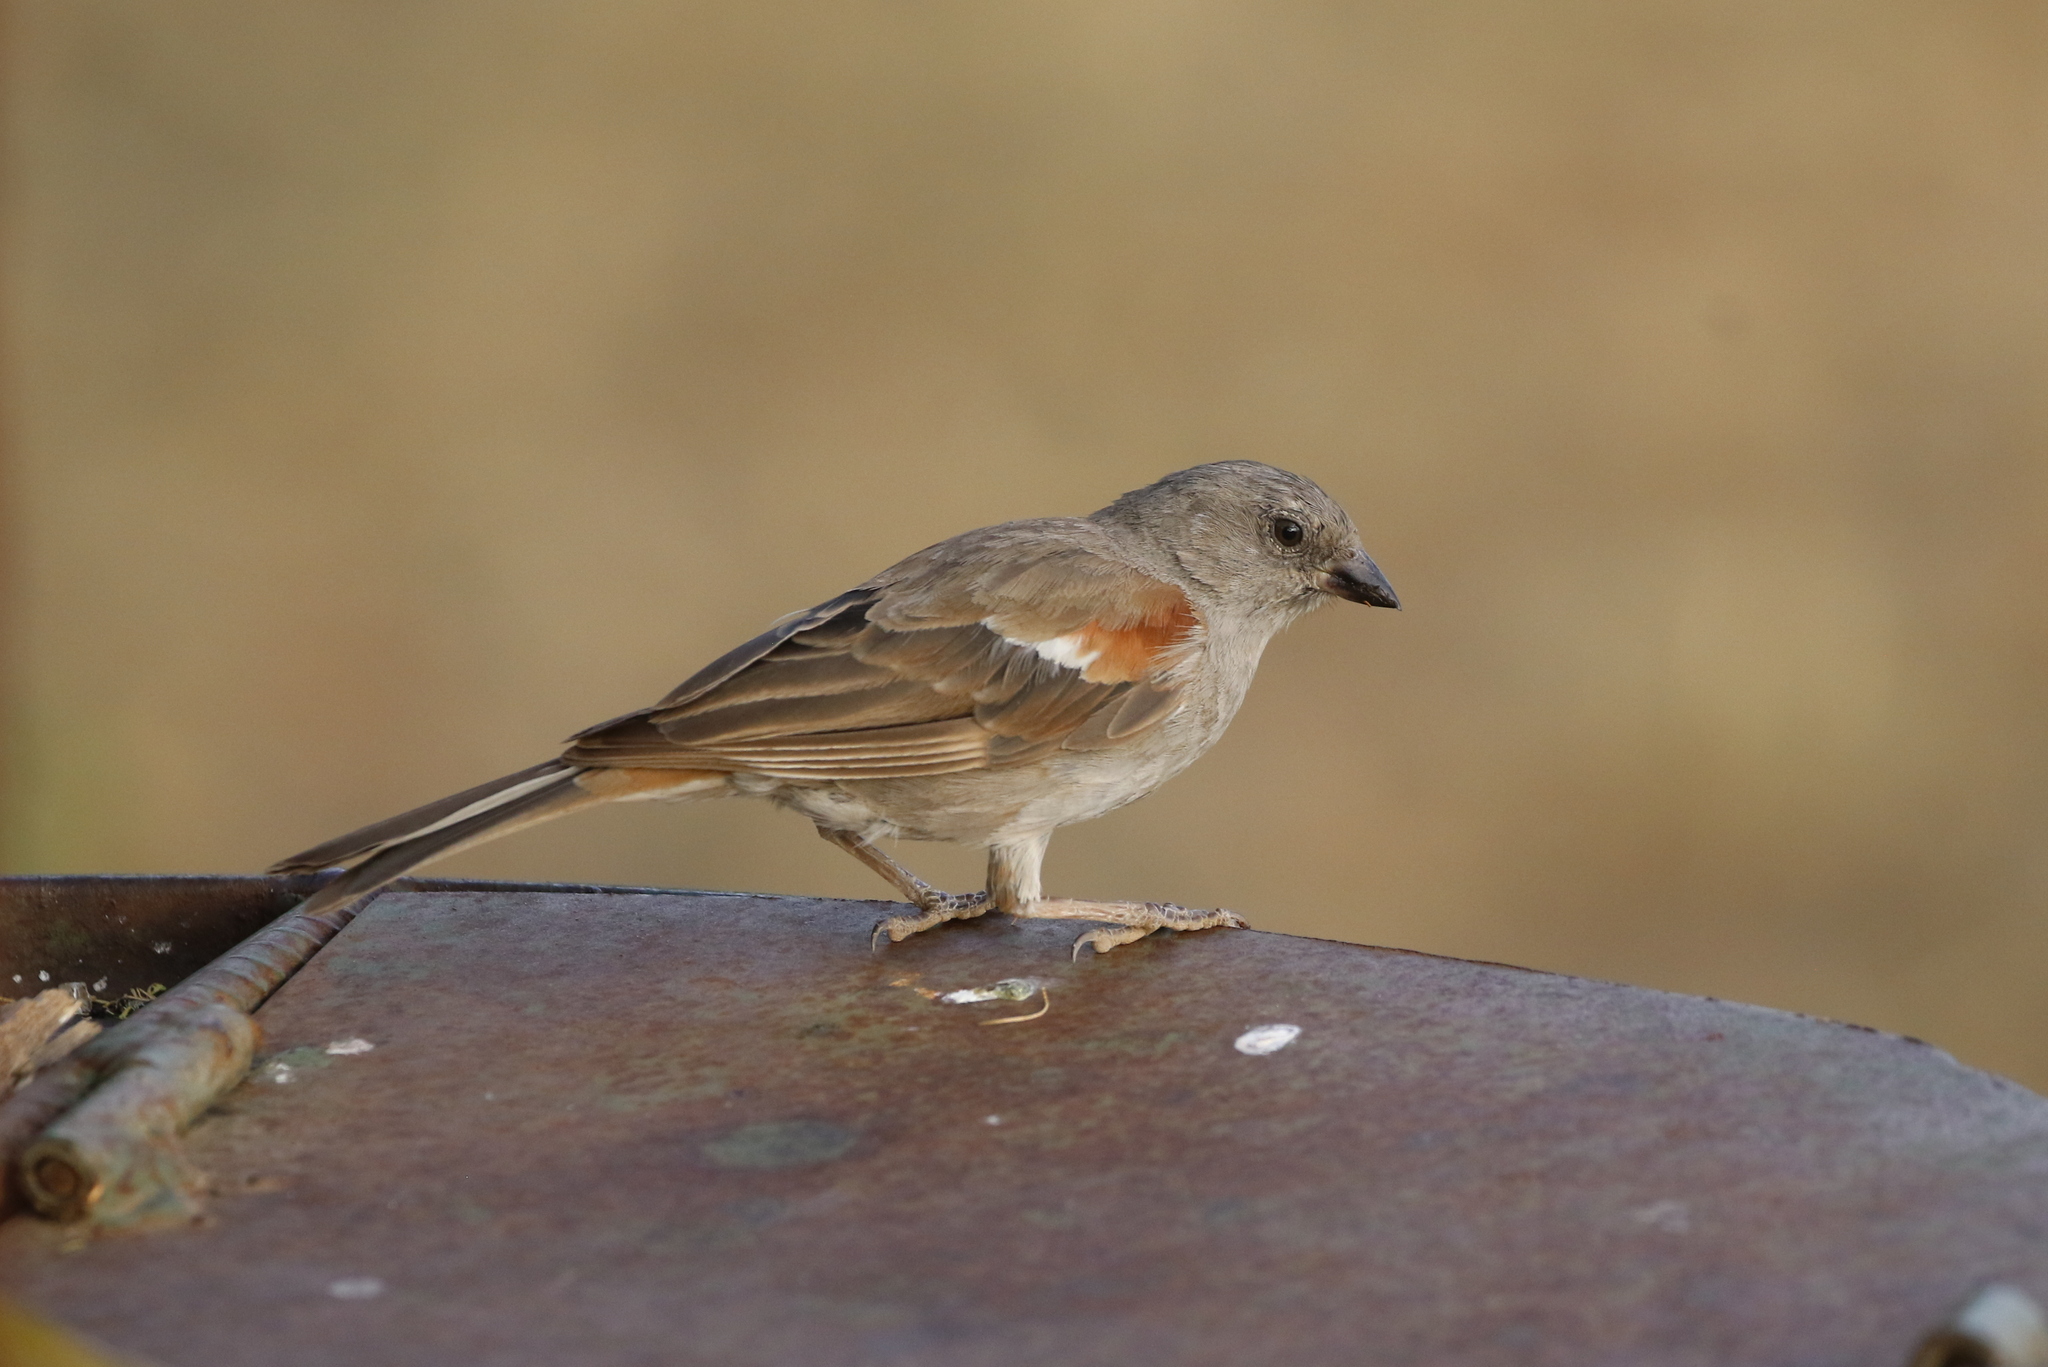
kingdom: Animalia
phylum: Chordata
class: Aves
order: Passeriformes
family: Passeridae
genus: Passer
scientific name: Passer suahelicus
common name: Swahili sparrow
